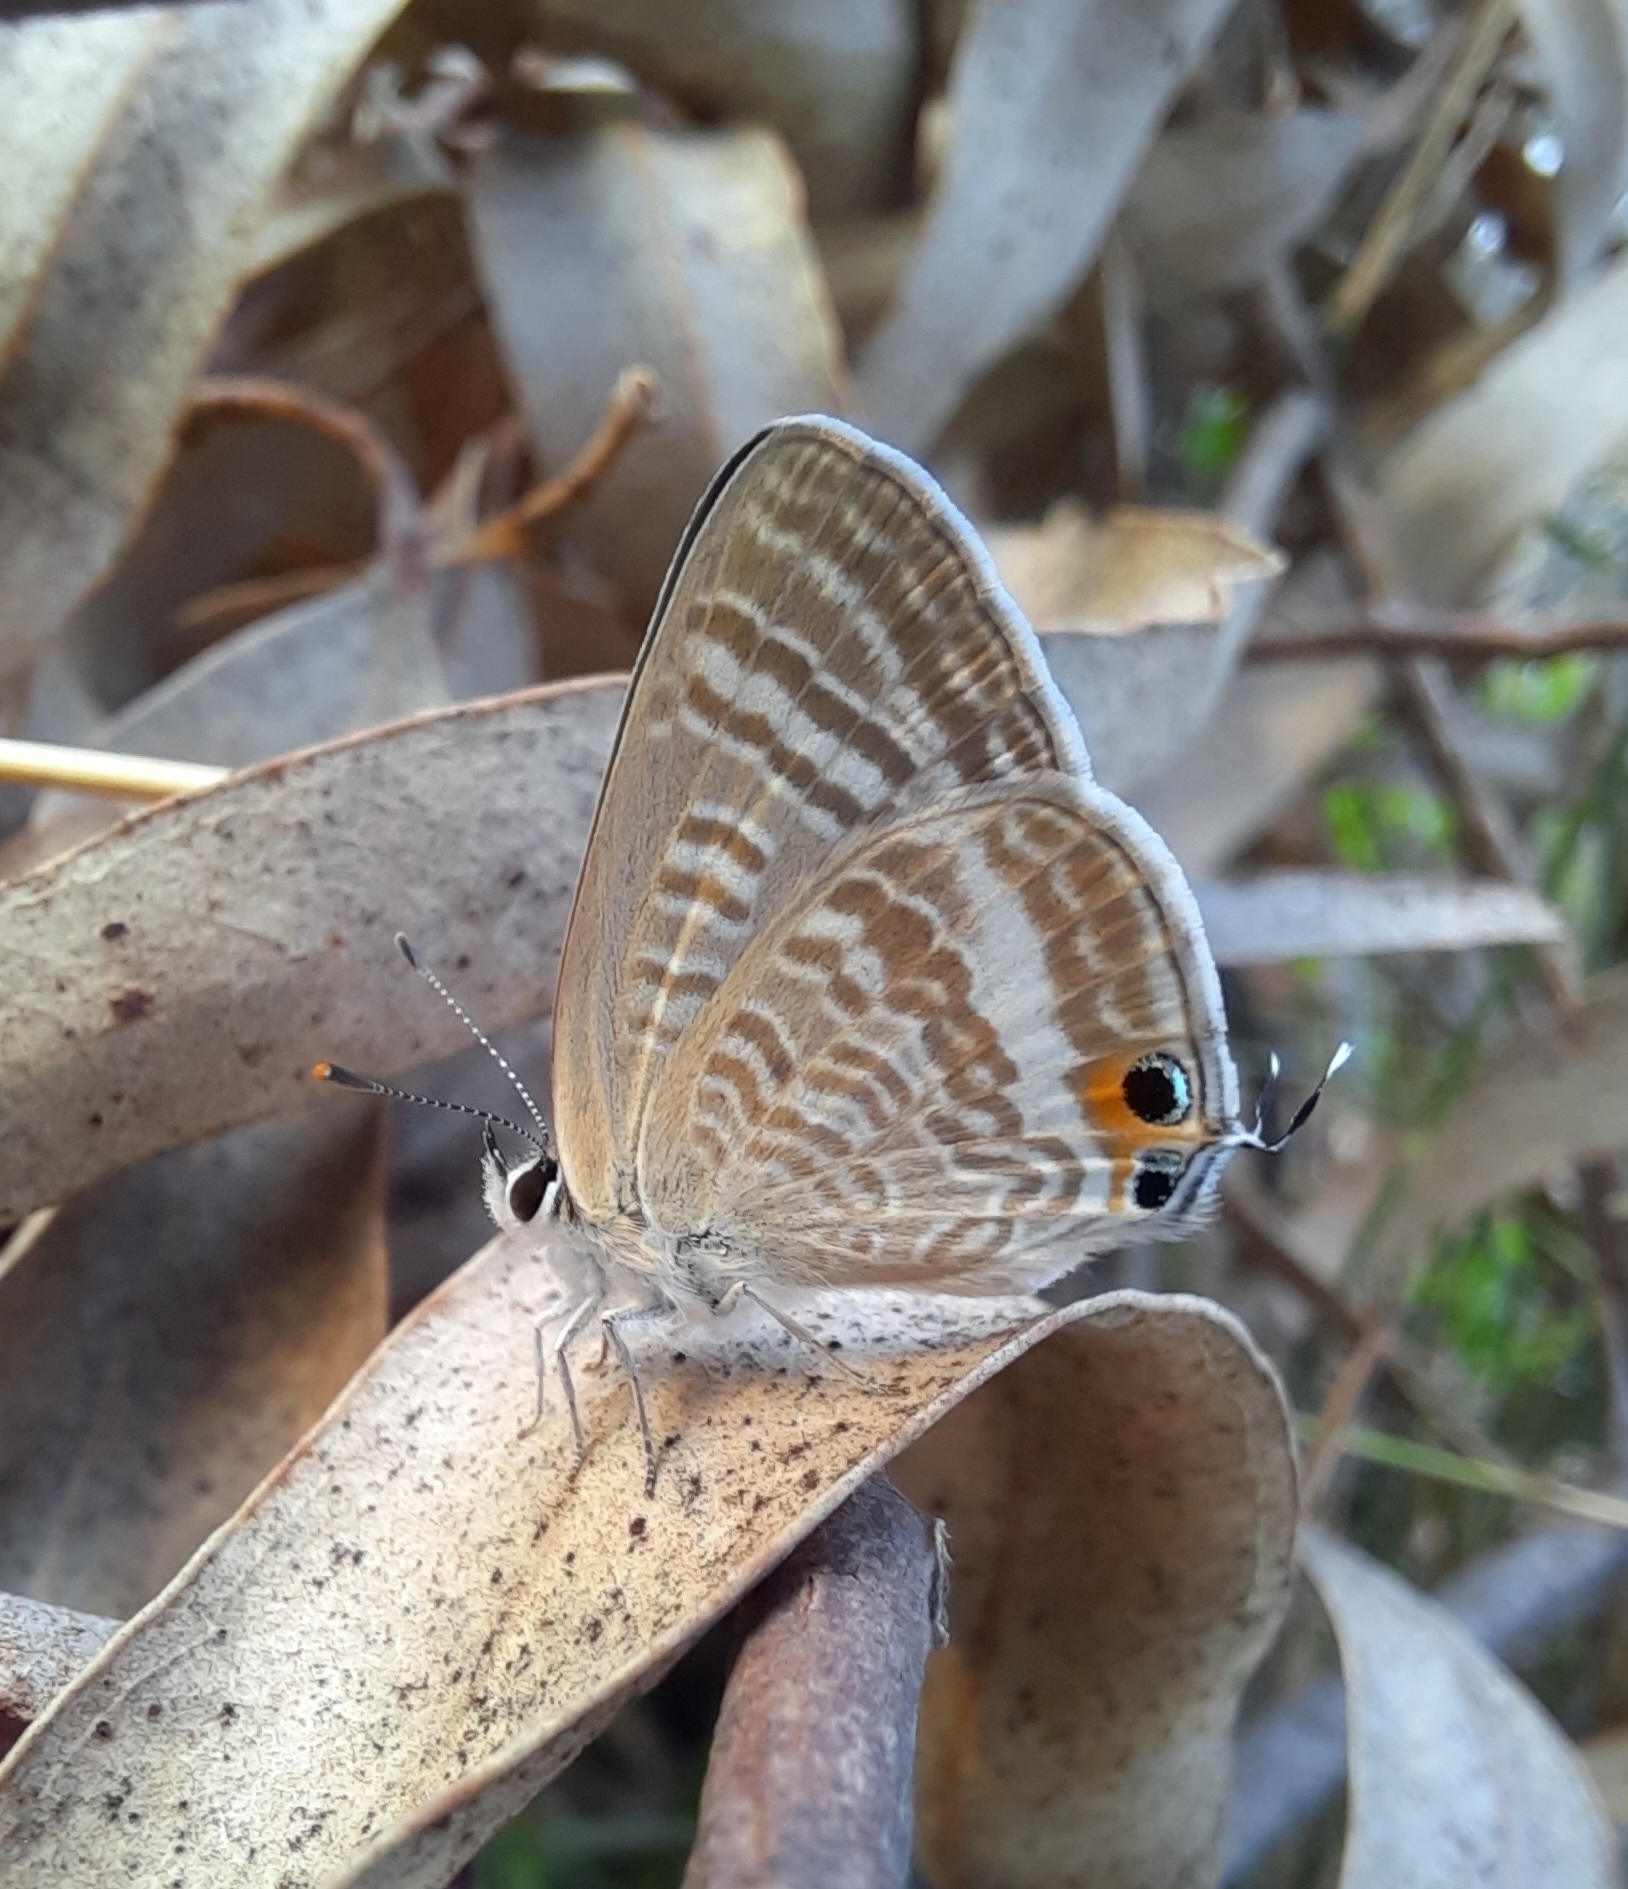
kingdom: Animalia
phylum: Arthropoda
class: Insecta
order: Lepidoptera
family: Lycaenidae
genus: Lampides
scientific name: Lampides boeticus
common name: Long-tailed blue
